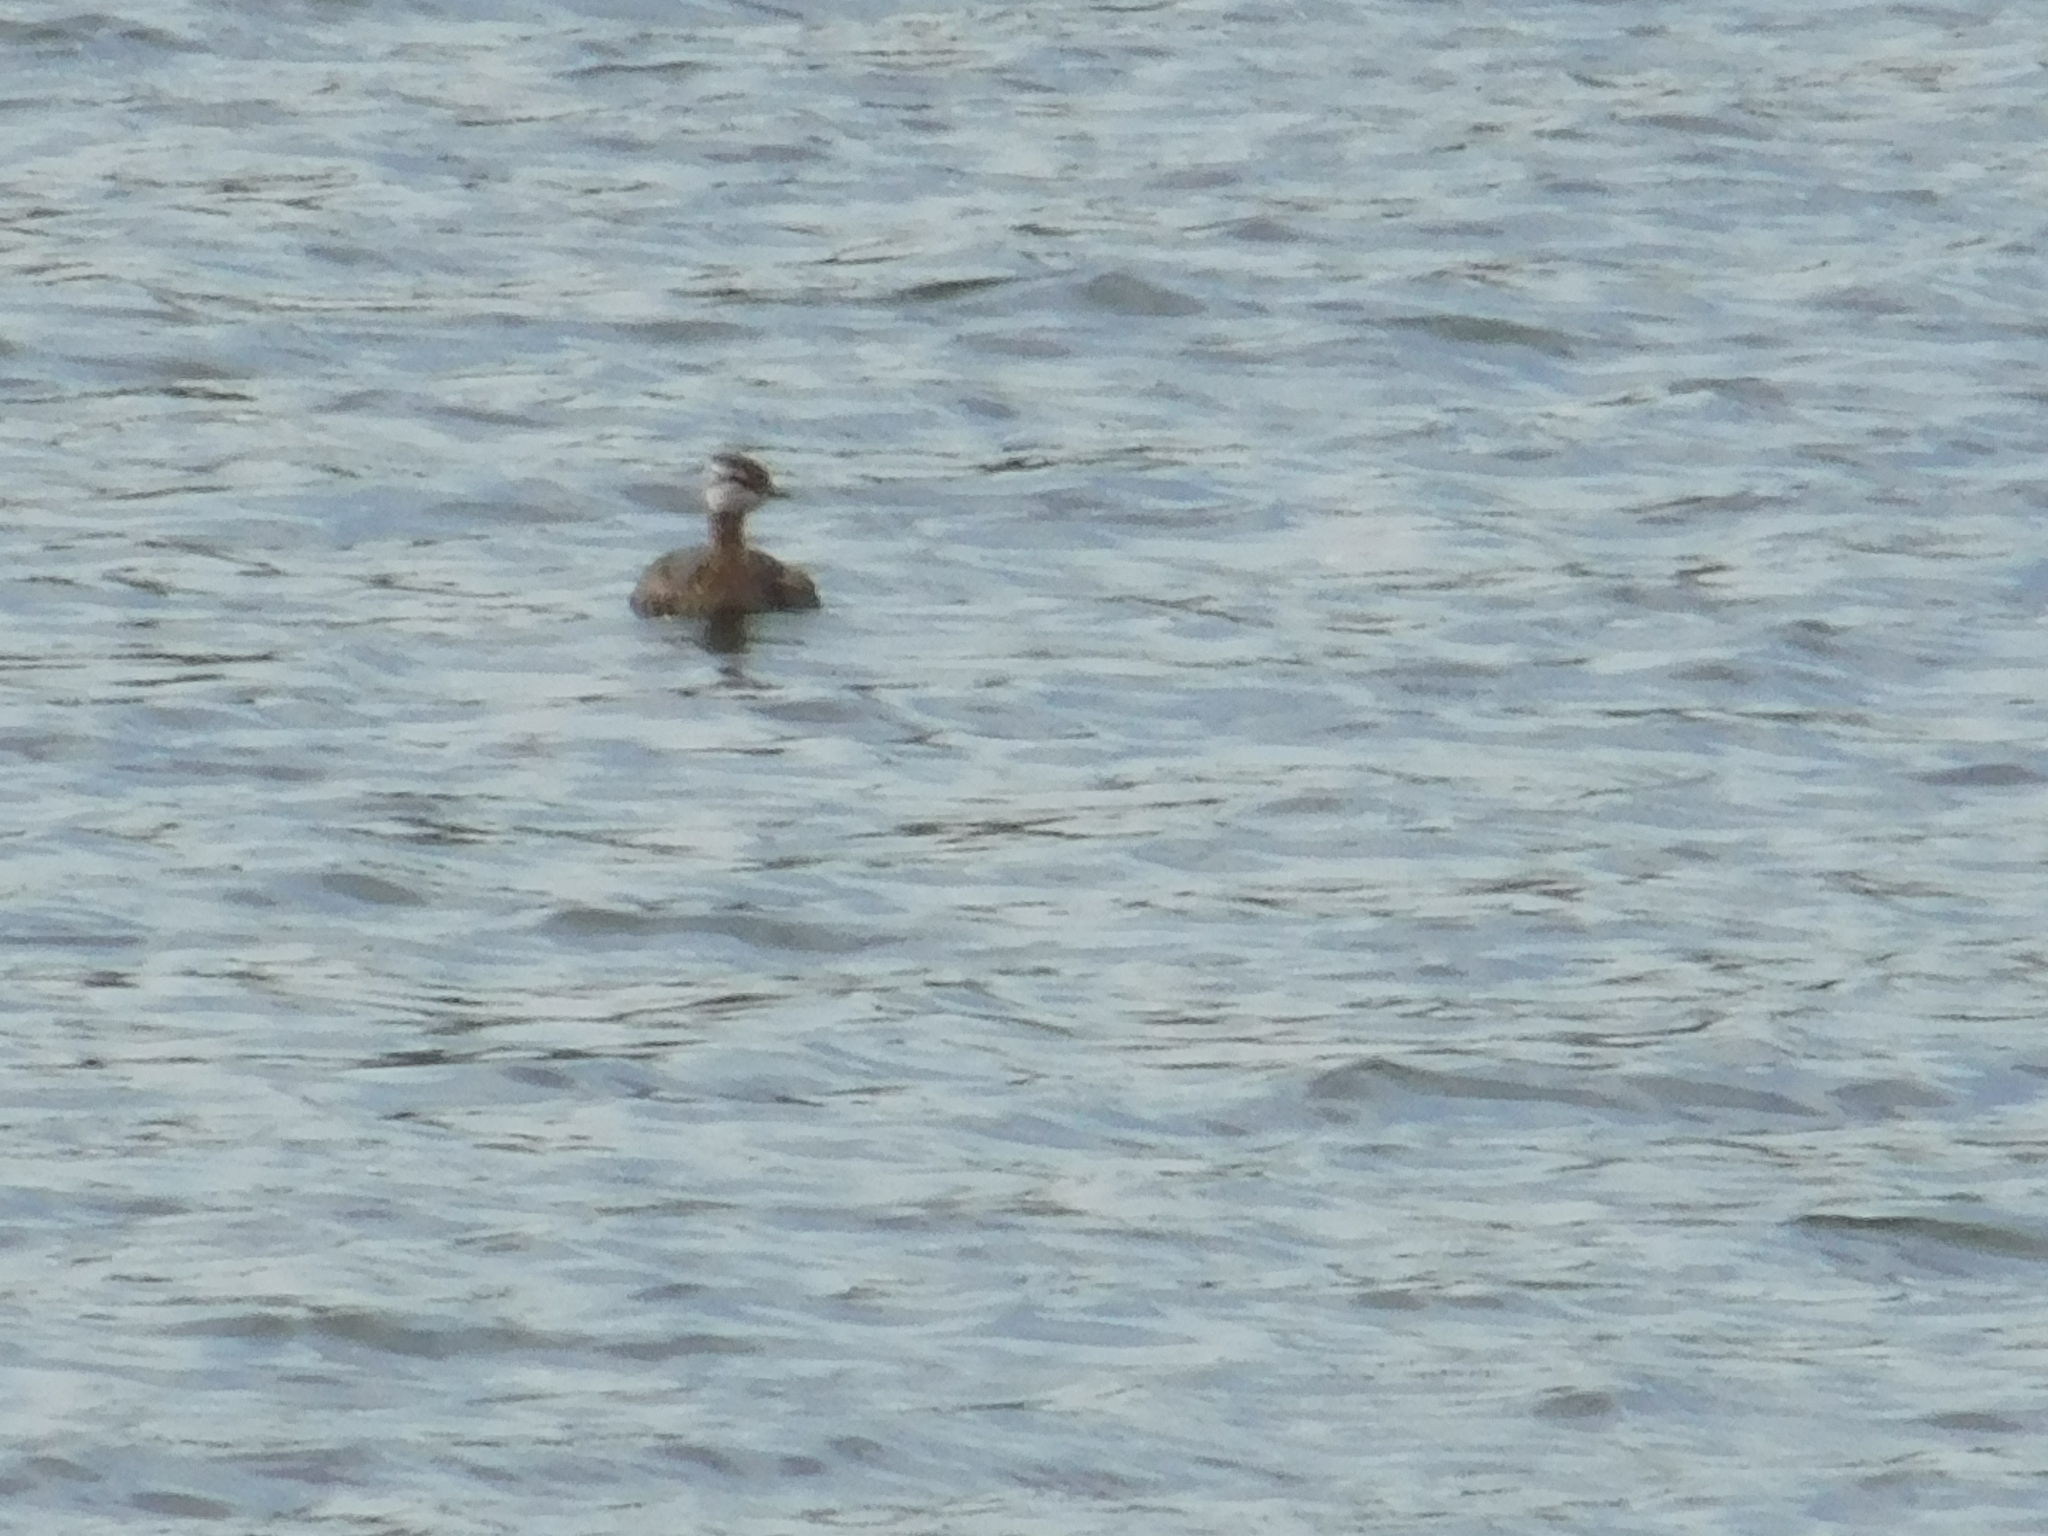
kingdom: Animalia
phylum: Chordata
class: Aves
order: Podicipediformes
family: Podicipedidae
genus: Rollandia
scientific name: Rollandia rolland
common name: White-tufted grebe
